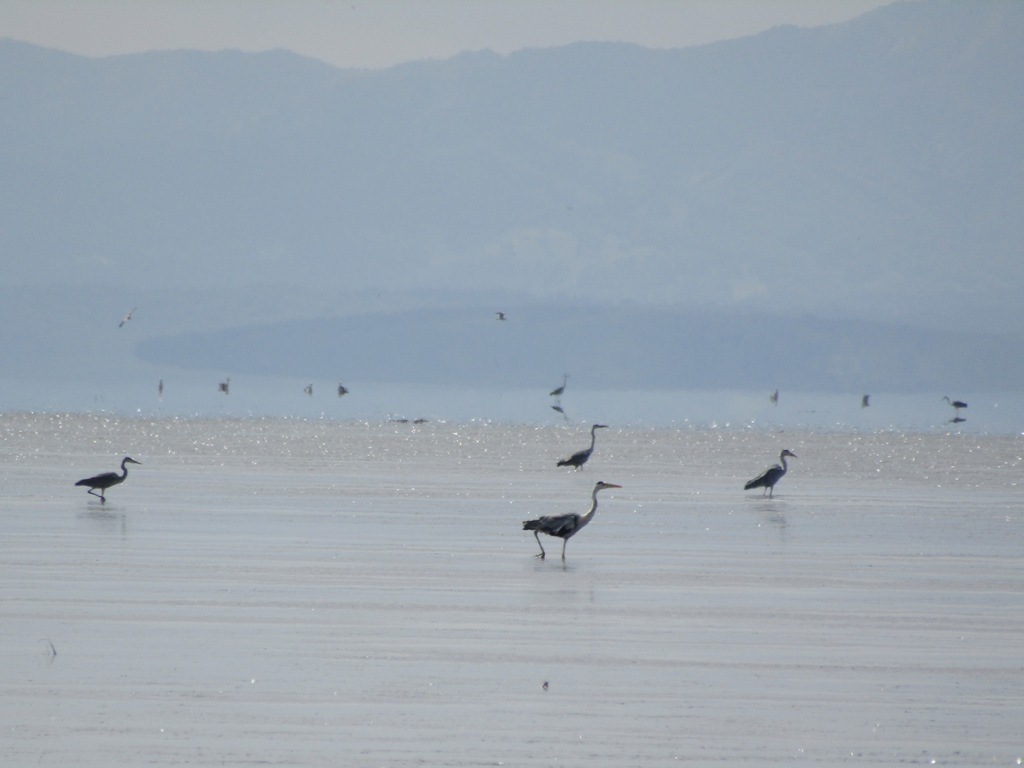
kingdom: Animalia
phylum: Chordata
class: Aves
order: Pelecaniformes
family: Ardeidae
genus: Ardea
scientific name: Ardea cinerea
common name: Grey heron
